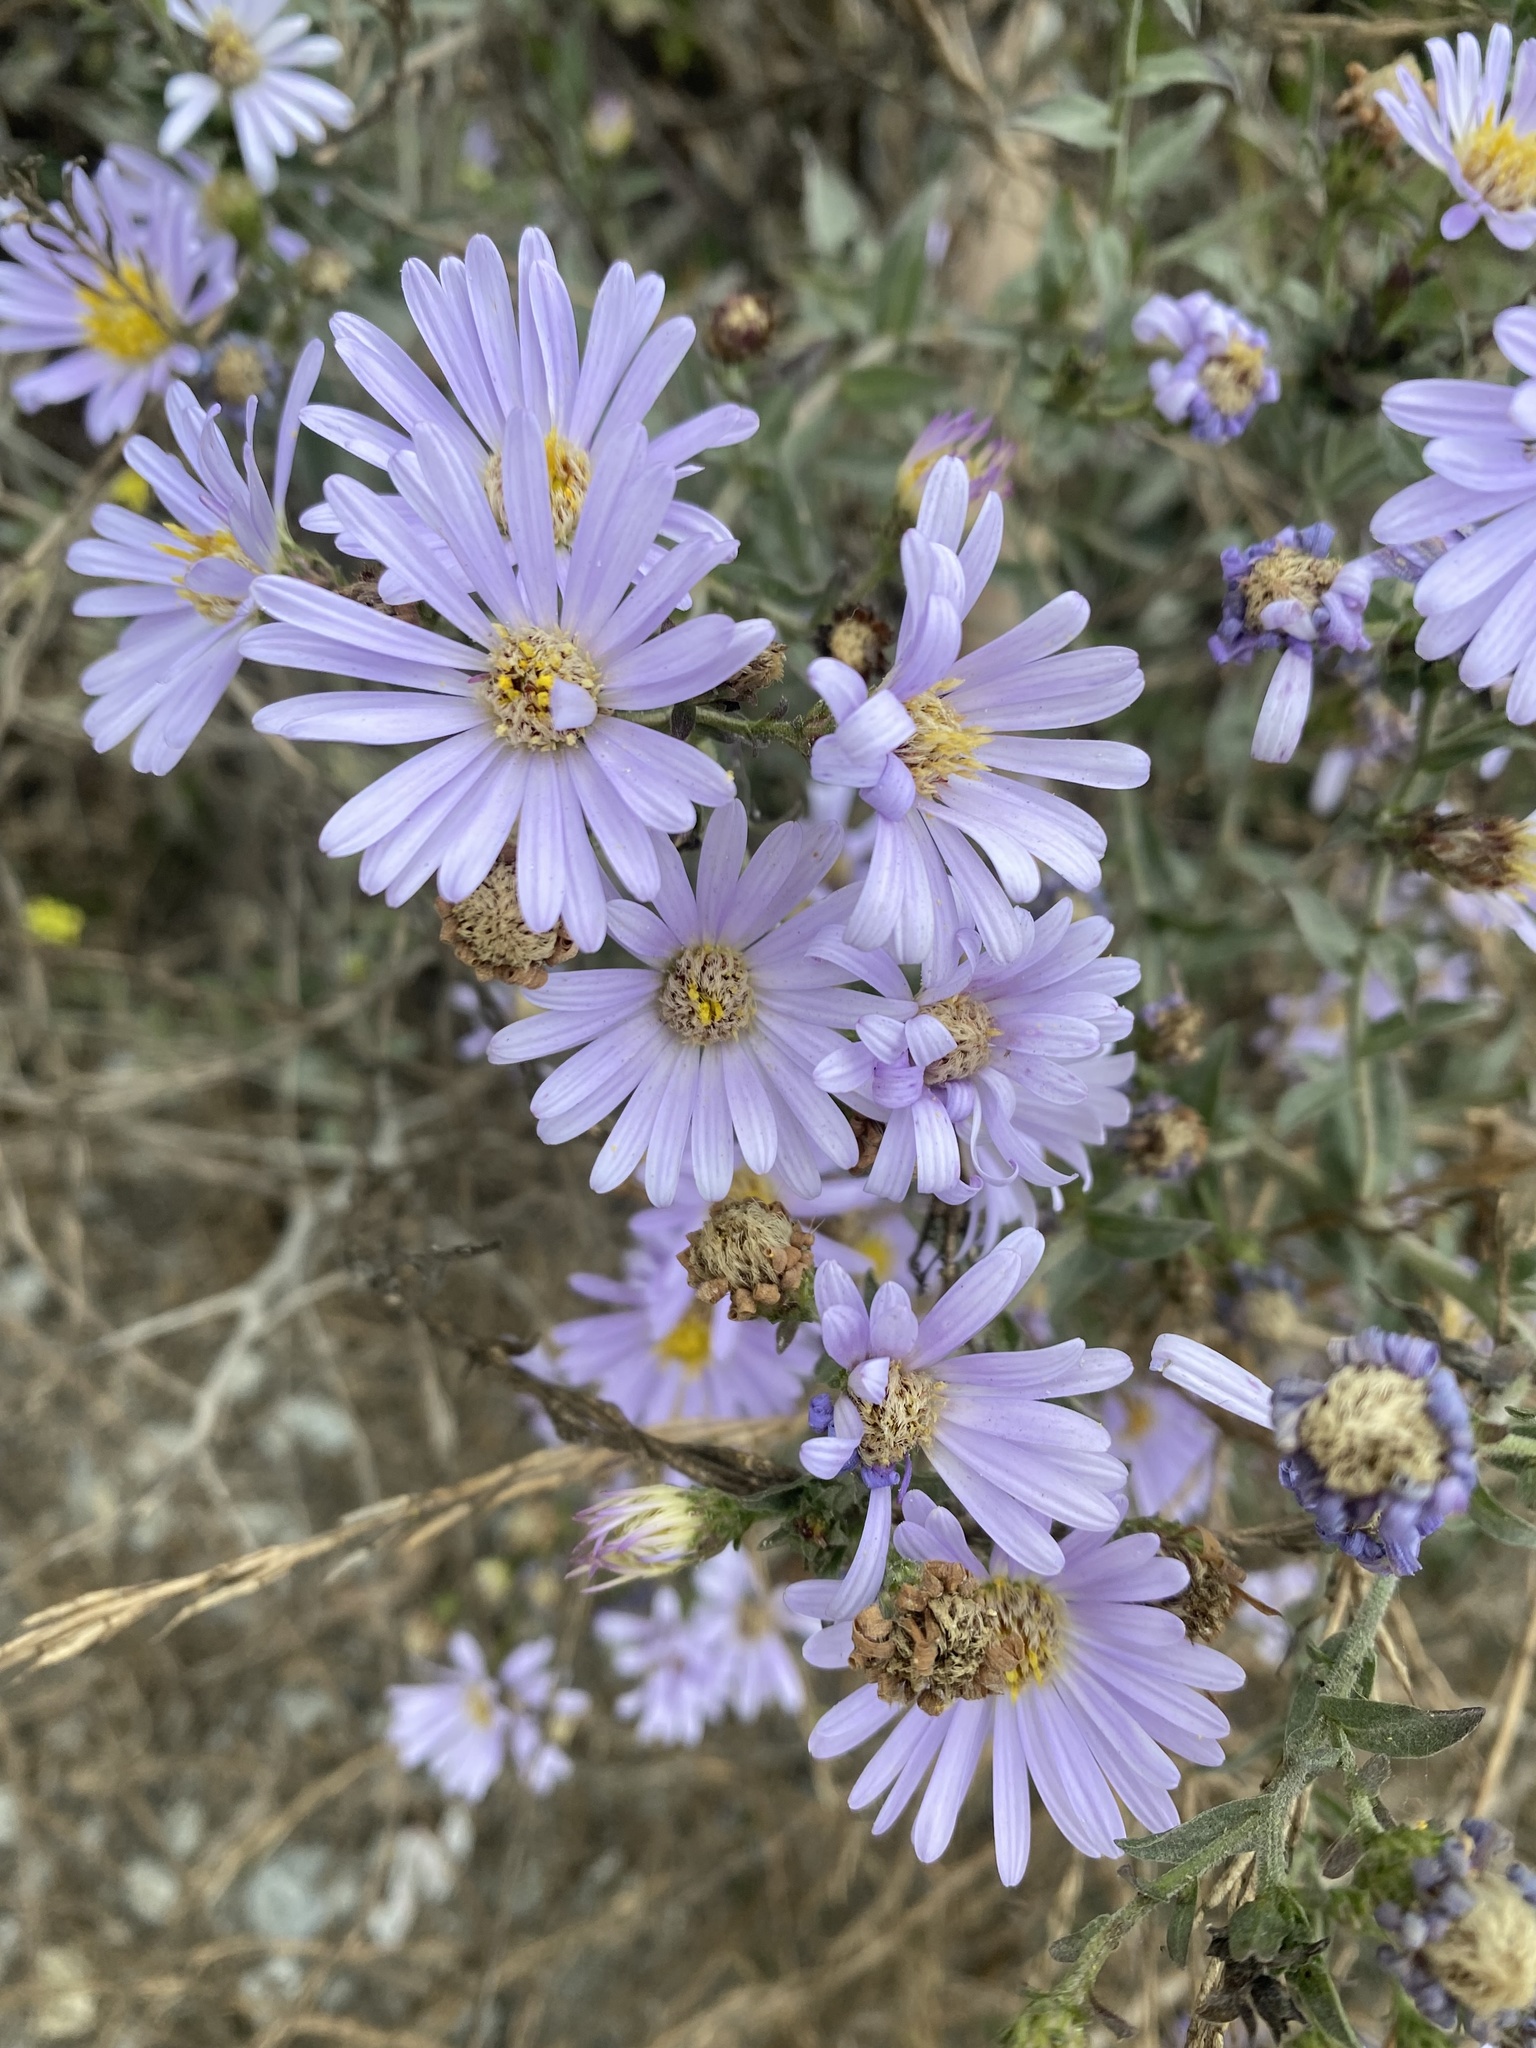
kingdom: Plantae
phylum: Tracheophyta
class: Magnoliopsida
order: Asterales
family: Asteraceae
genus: Symphyotrichum
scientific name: Symphyotrichum chilense
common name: Pacific aster
